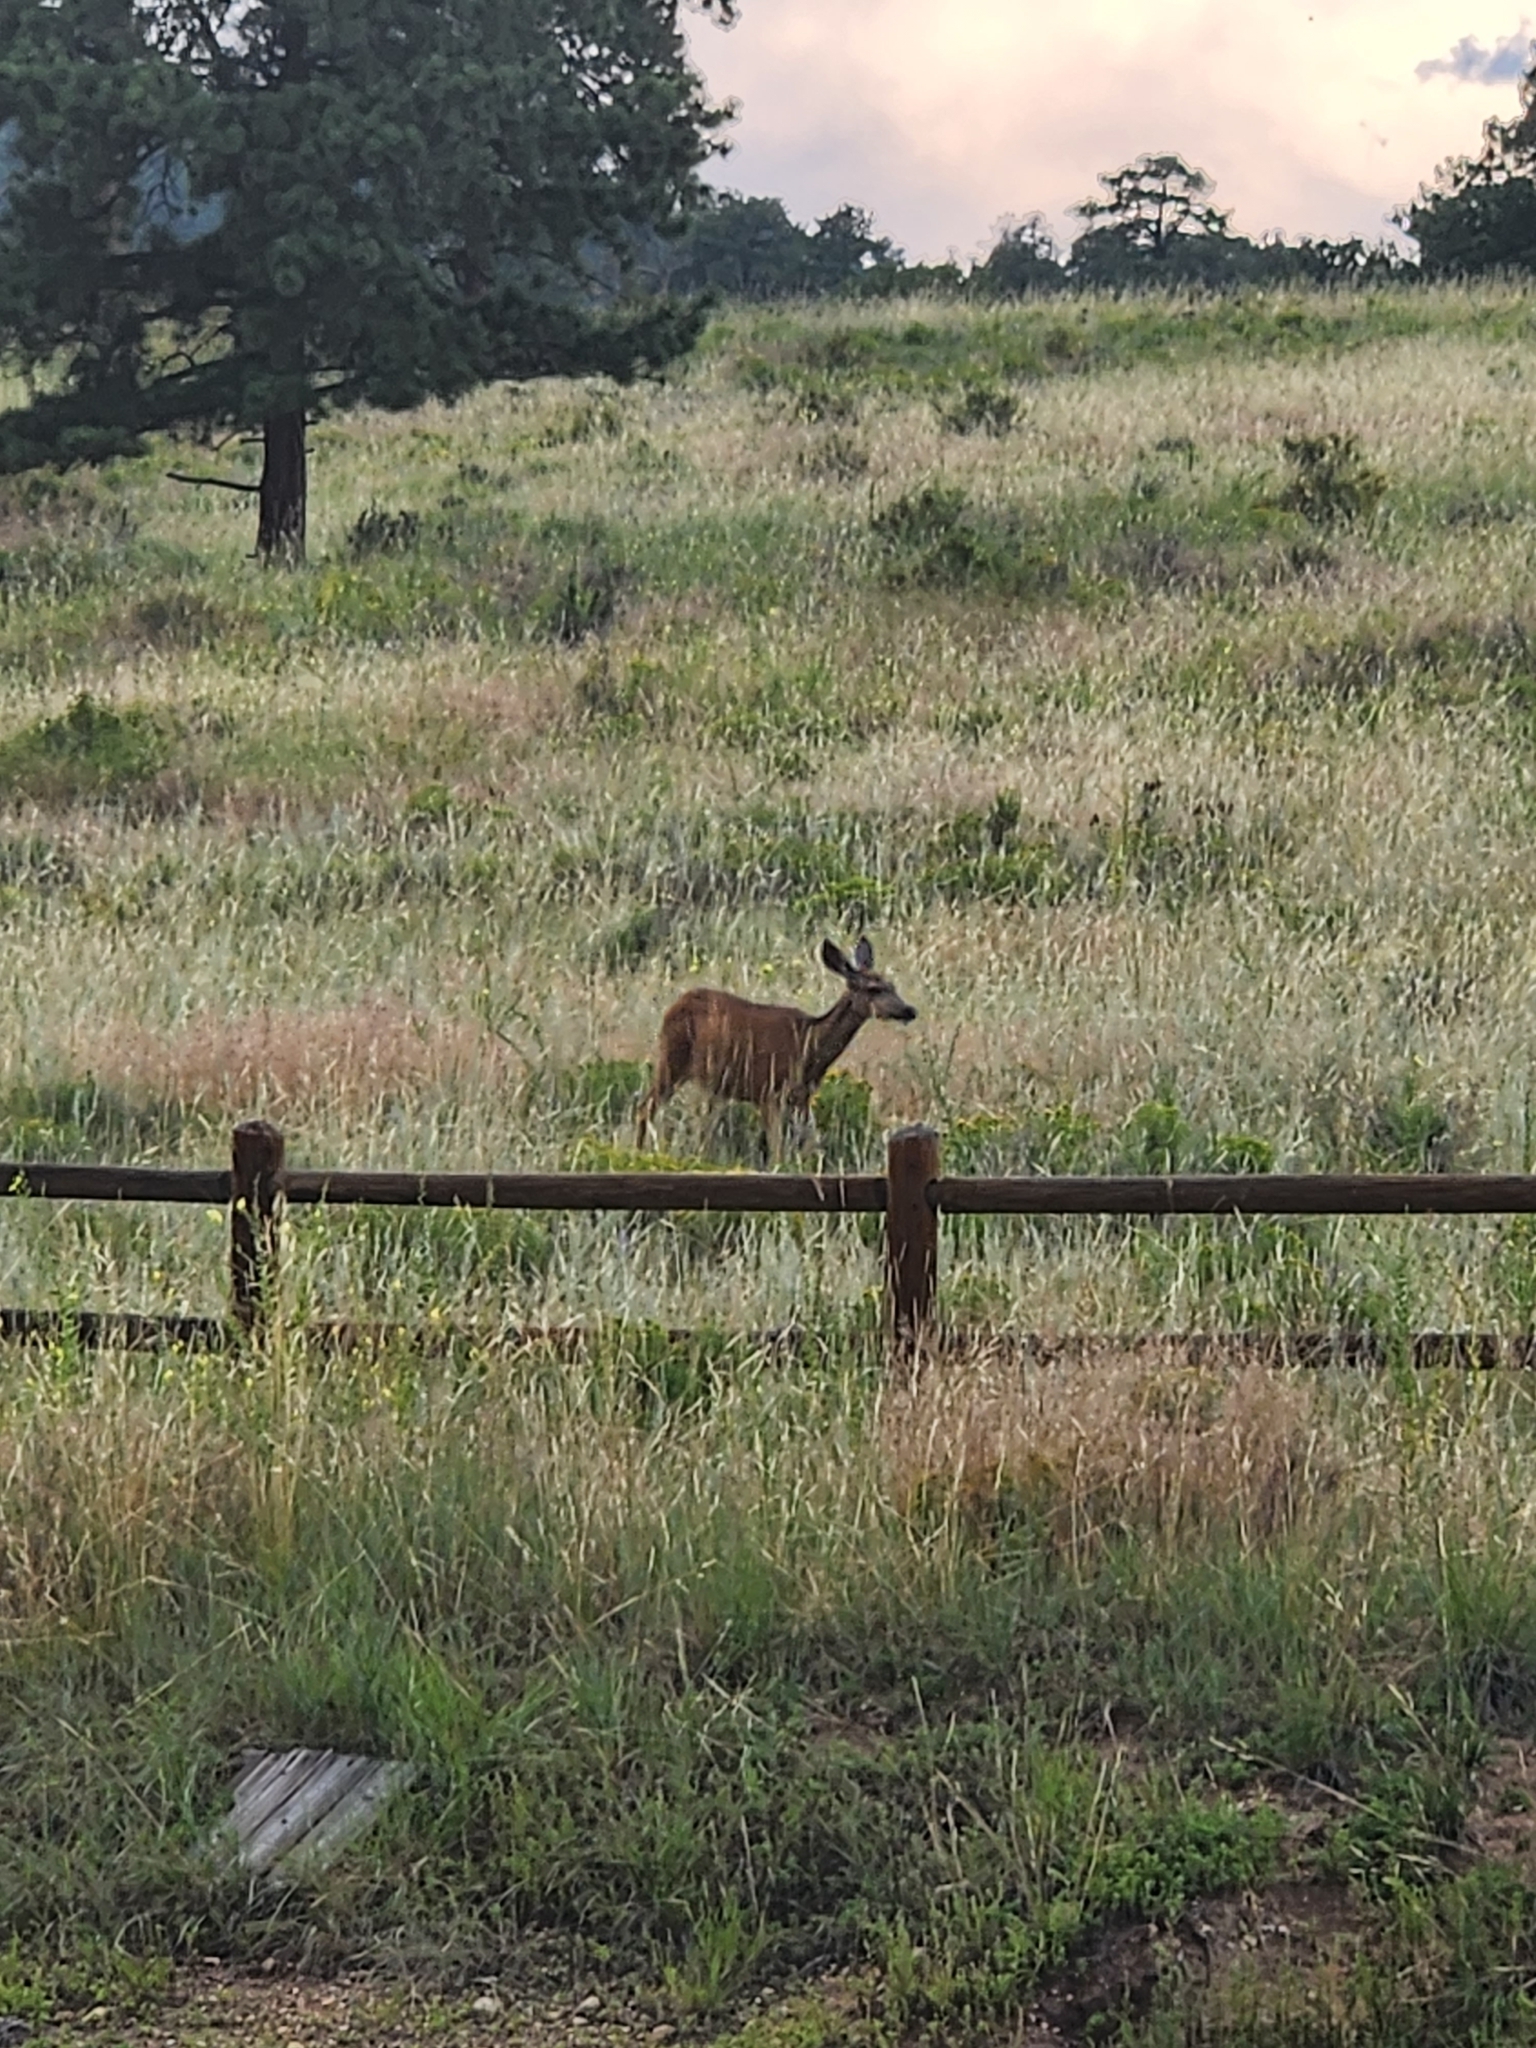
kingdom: Animalia
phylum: Chordata
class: Mammalia
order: Artiodactyla
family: Cervidae
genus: Odocoileus
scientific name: Odocoileus hemionus
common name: Mule deer
